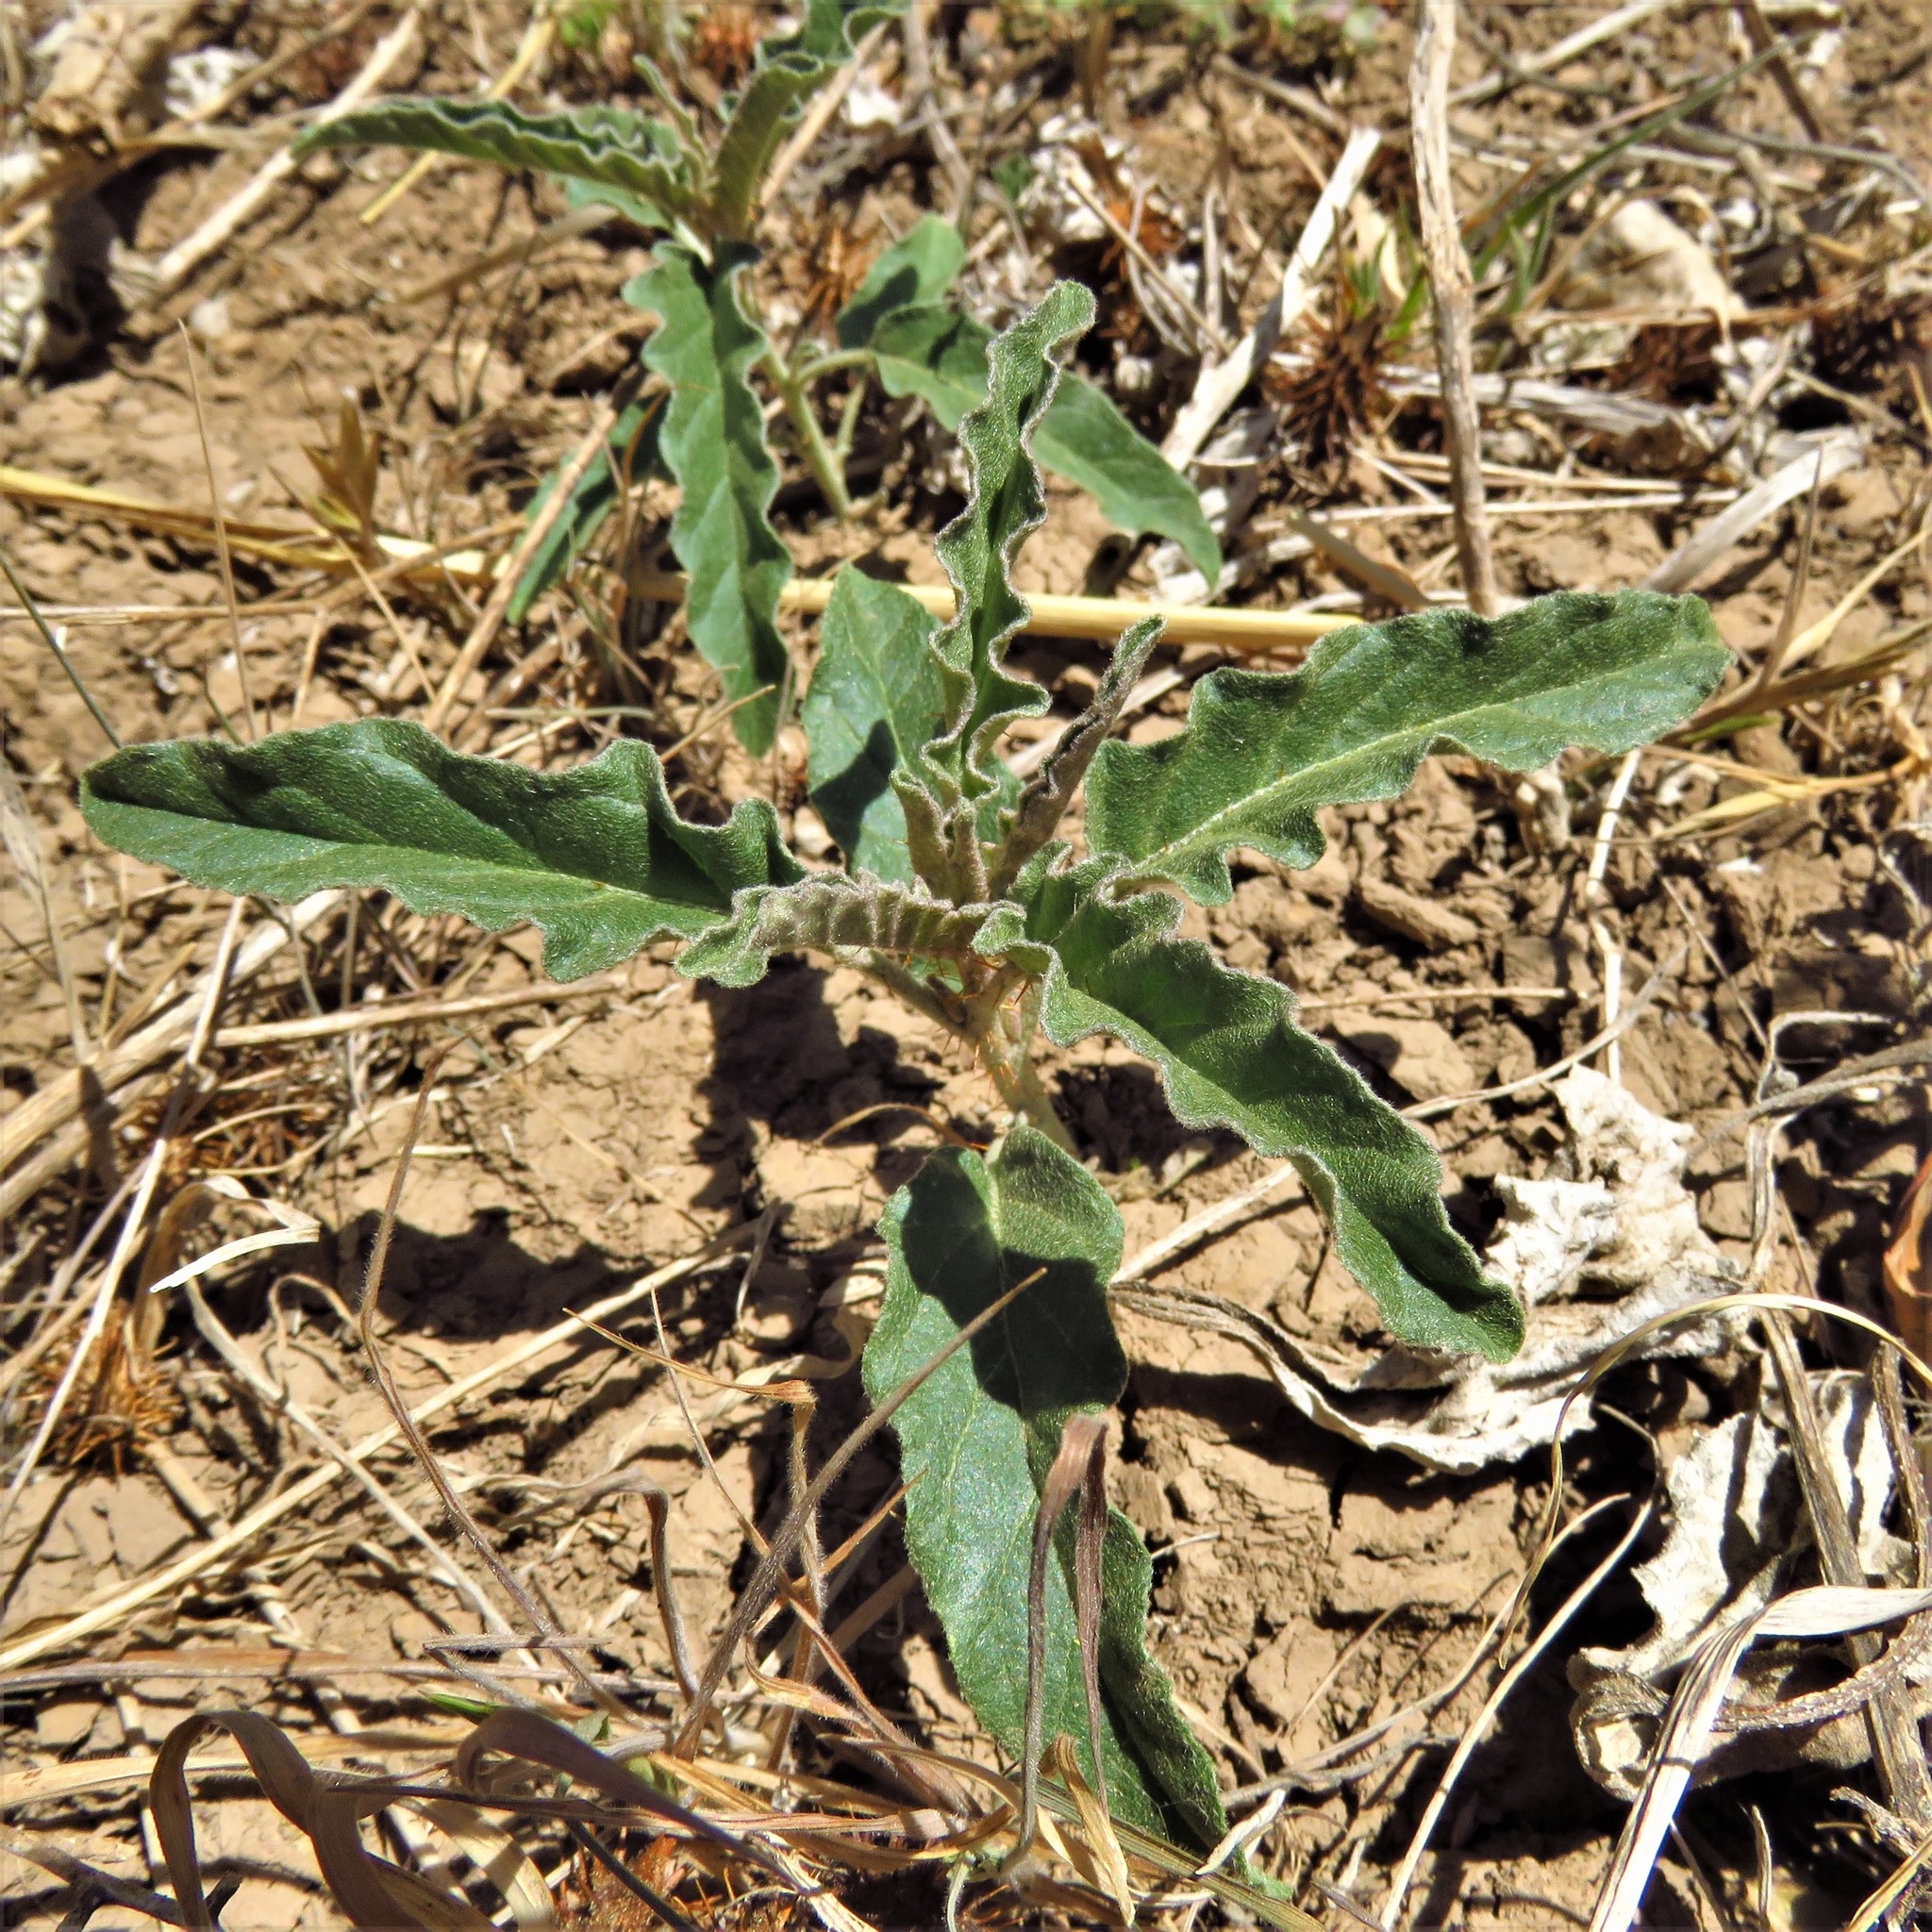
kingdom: Plantae
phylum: Tracheophyta
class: Magnoliopsida
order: Solanales
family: Solanaceae
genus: Solanum
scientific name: Solanum elaeagnifolium
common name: Silverleaf nightshade
